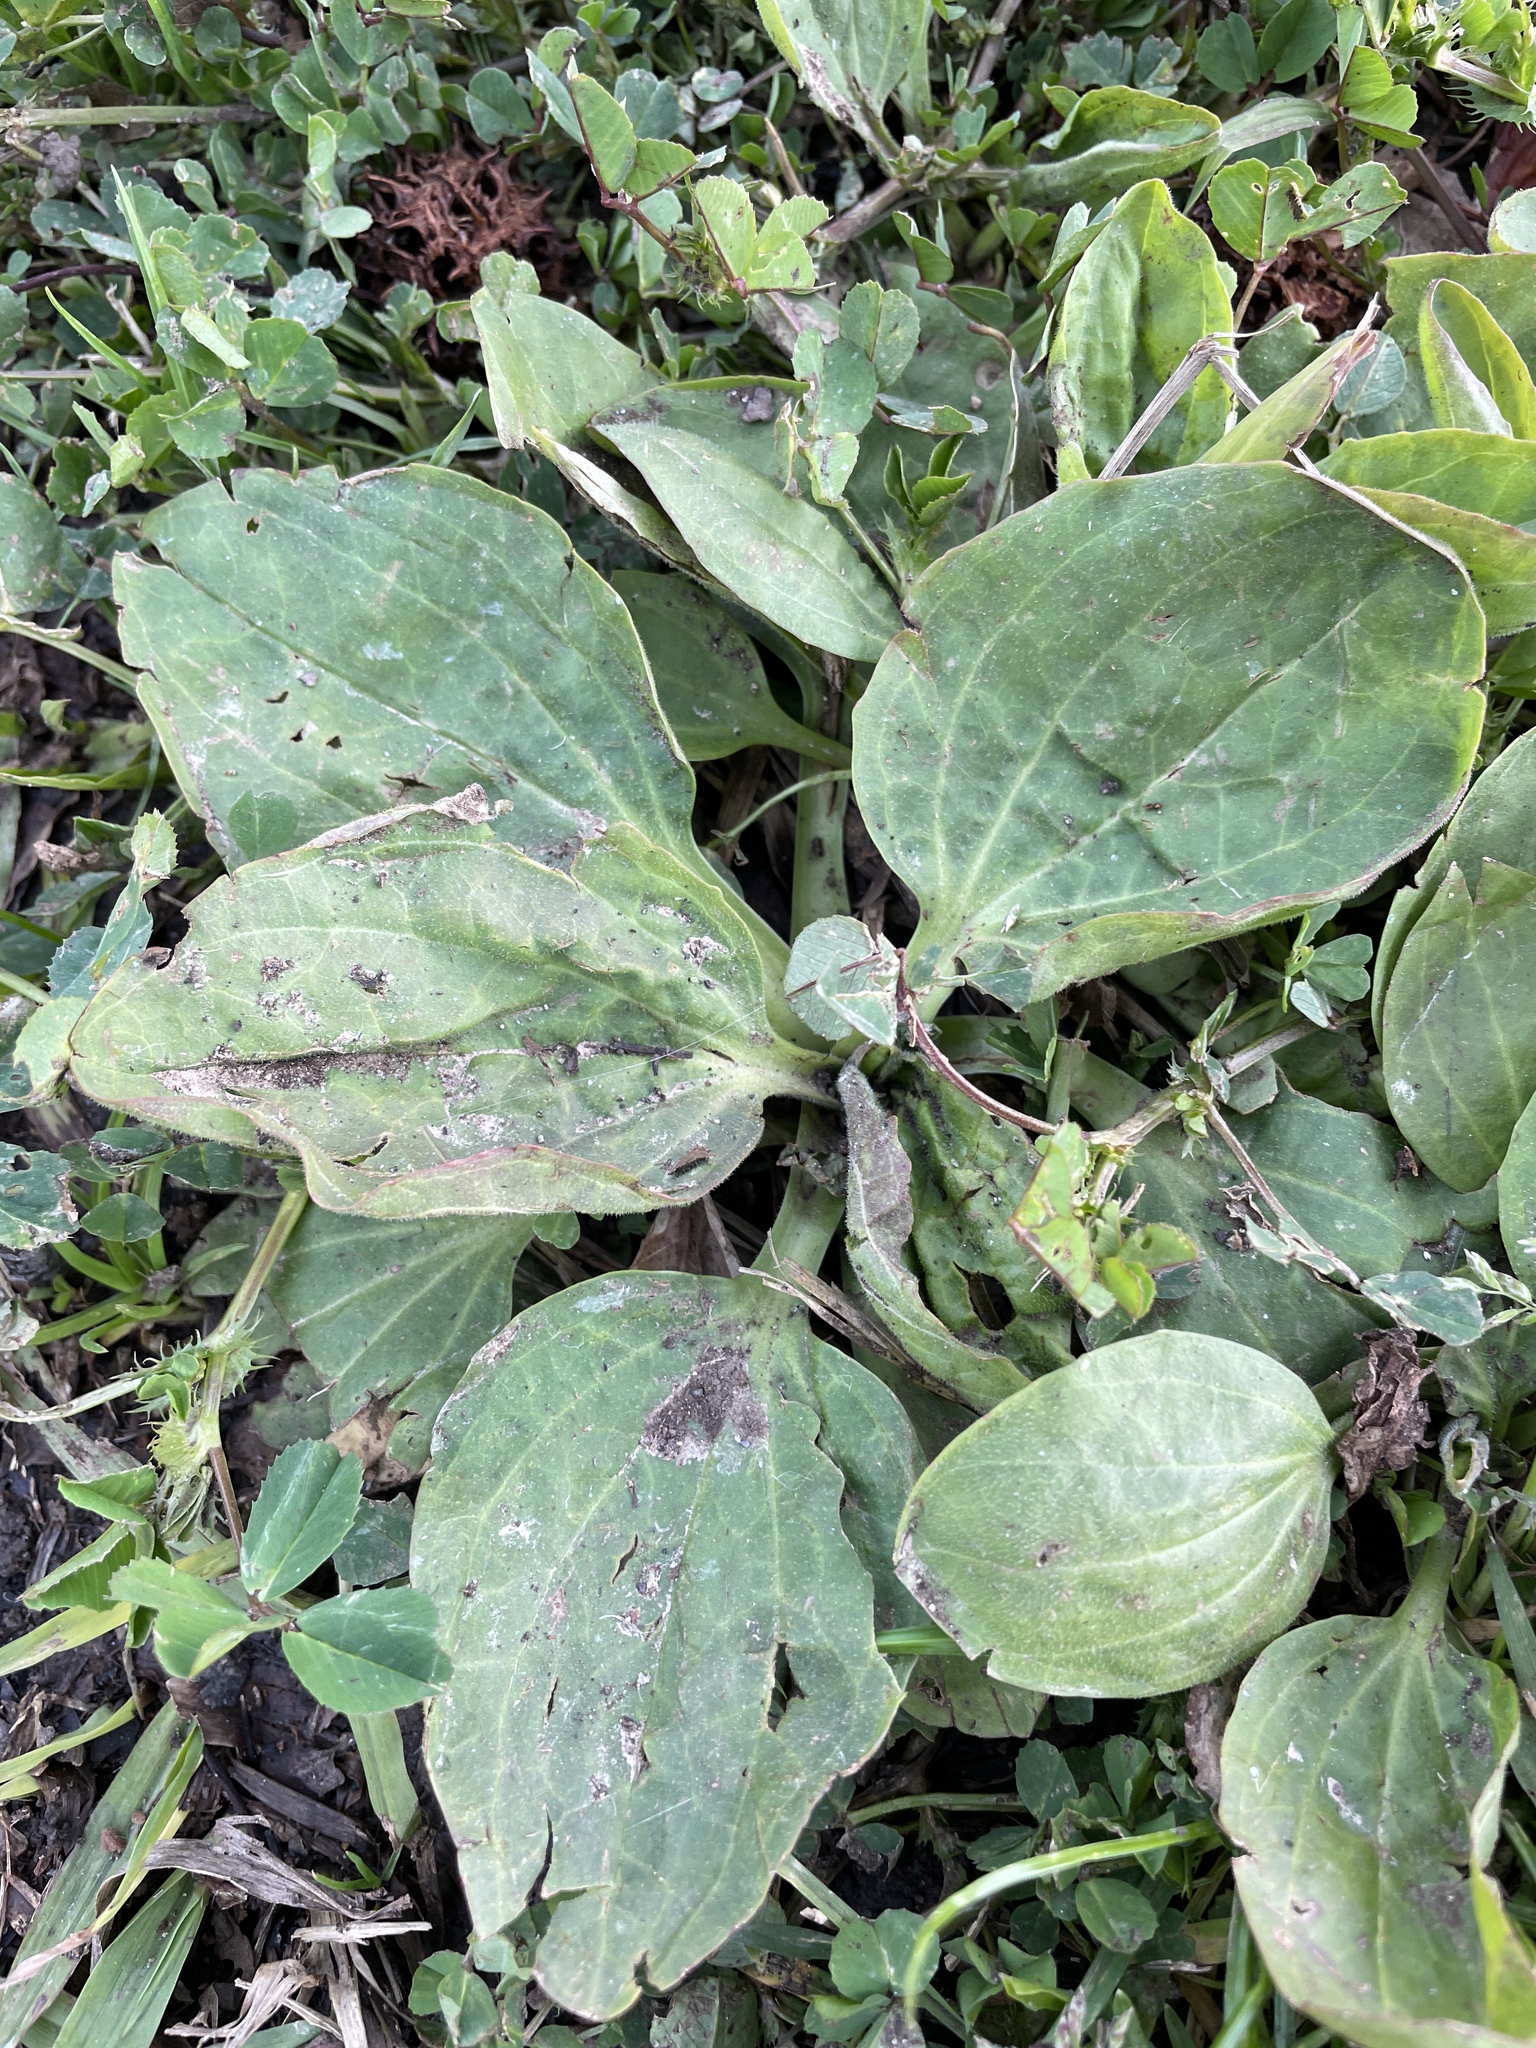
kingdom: Plantae
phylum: Tracheophyta
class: Magnoliopsida
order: Lamiales
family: Plantaginaceae
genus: Plantago
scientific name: Plantago major
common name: Common plantain
